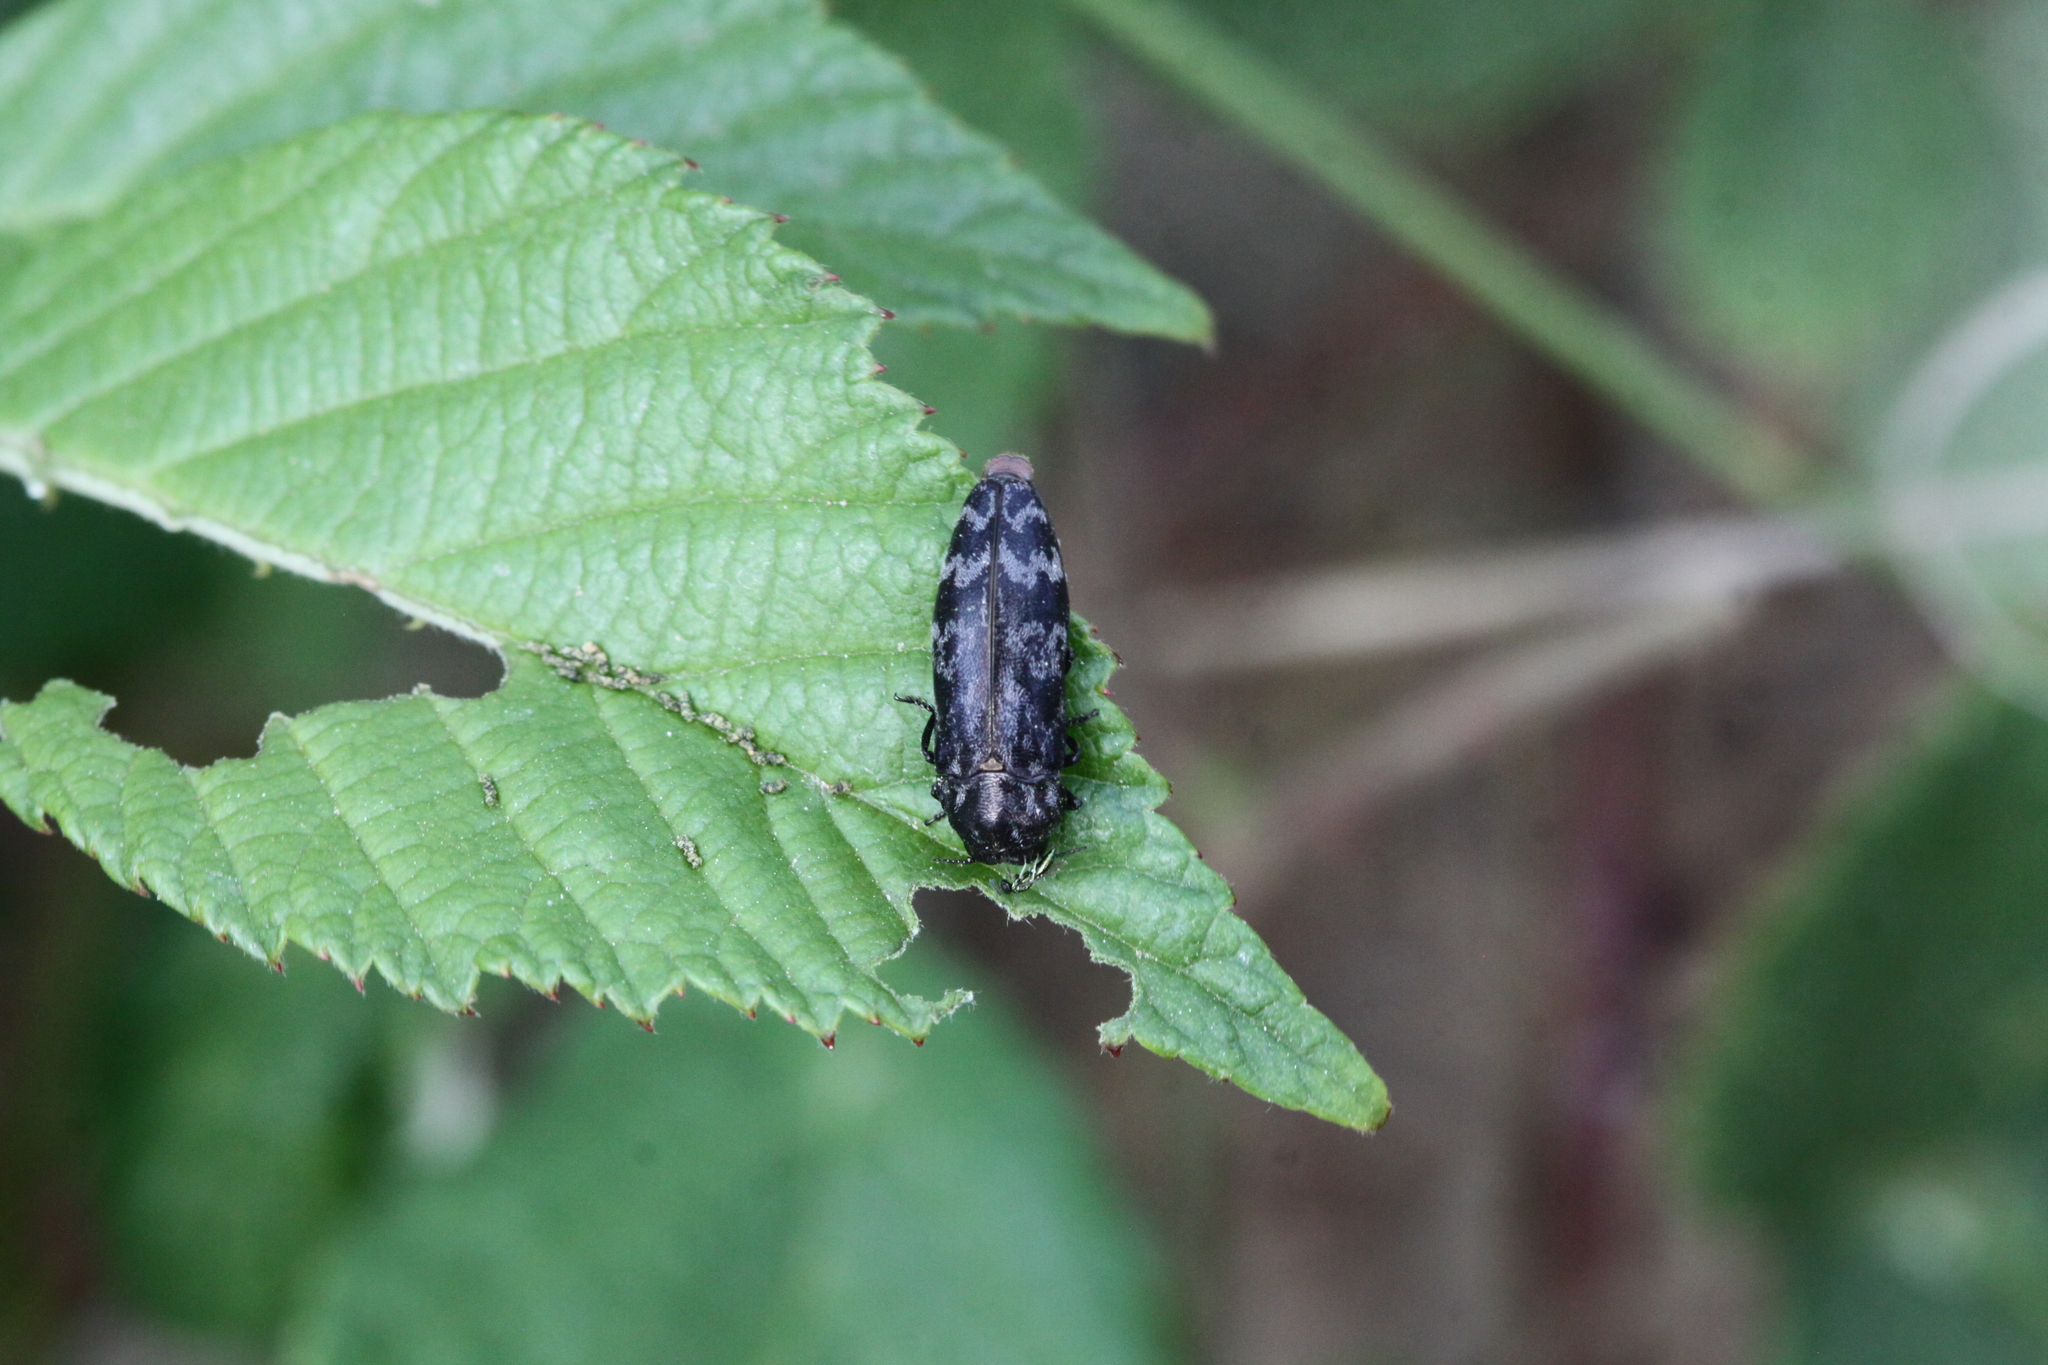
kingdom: Animalia
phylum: Arthropoda
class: Insecta
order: Coleoptera
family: Buprestidae
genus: Coraebus
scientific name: Coraebus rubi
